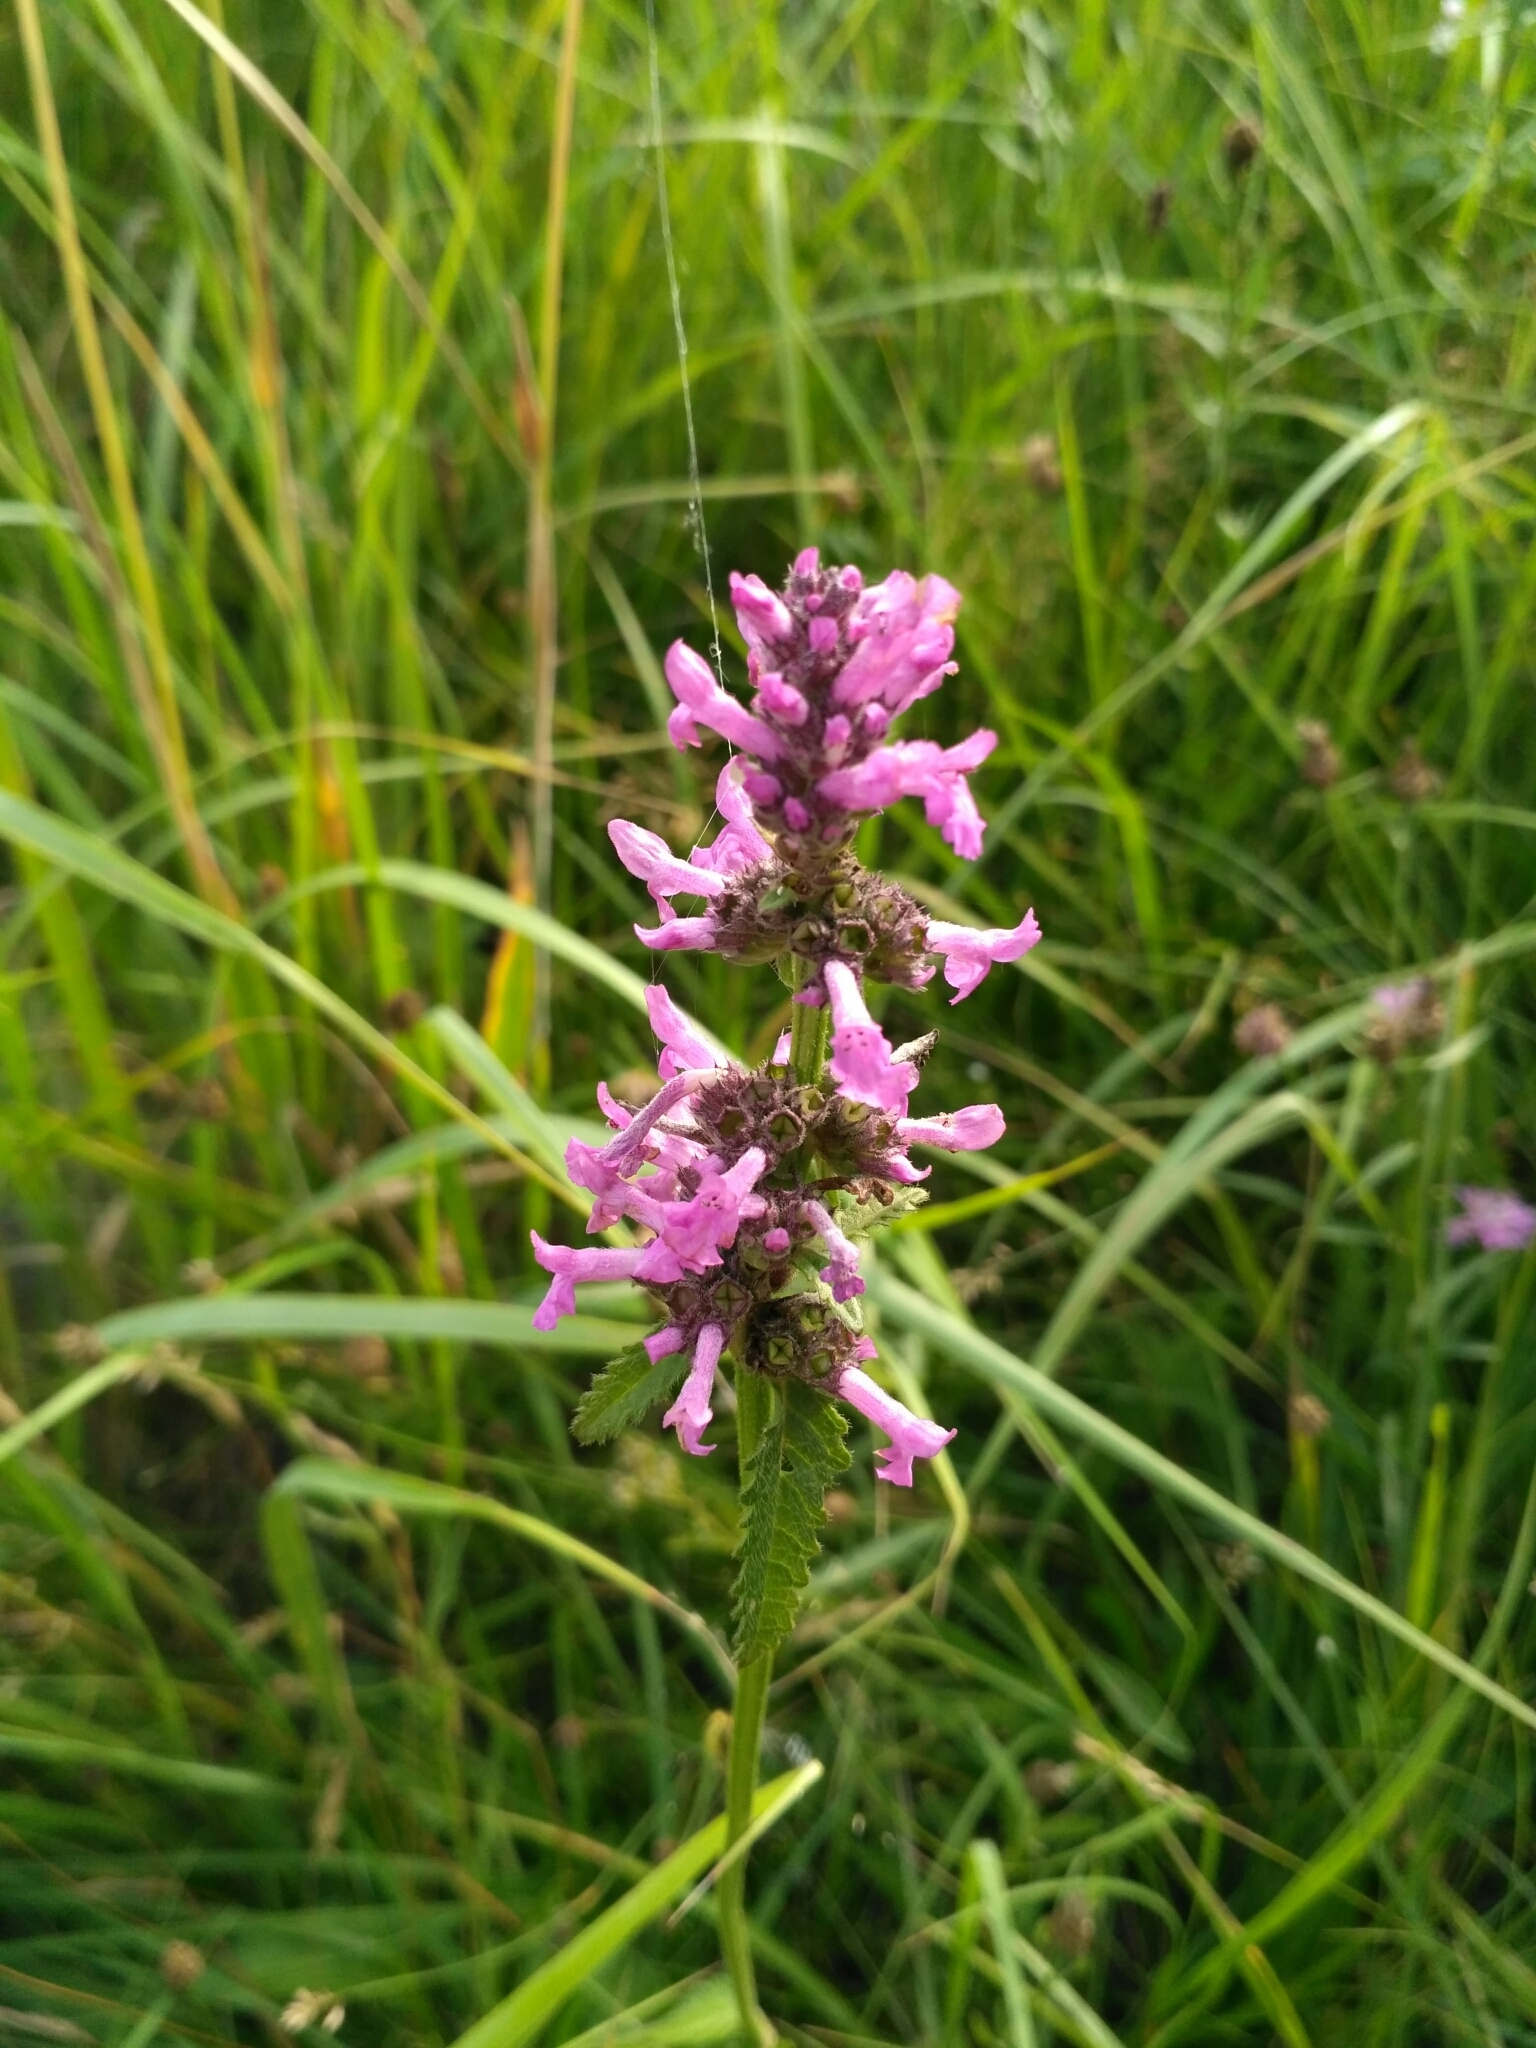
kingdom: Plantae
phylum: Tracheophyta
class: Magnoliopsida
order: Lamiales
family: Lamiaceae
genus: Betonica
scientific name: Betonica officinalis
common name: Bishop's-wort
